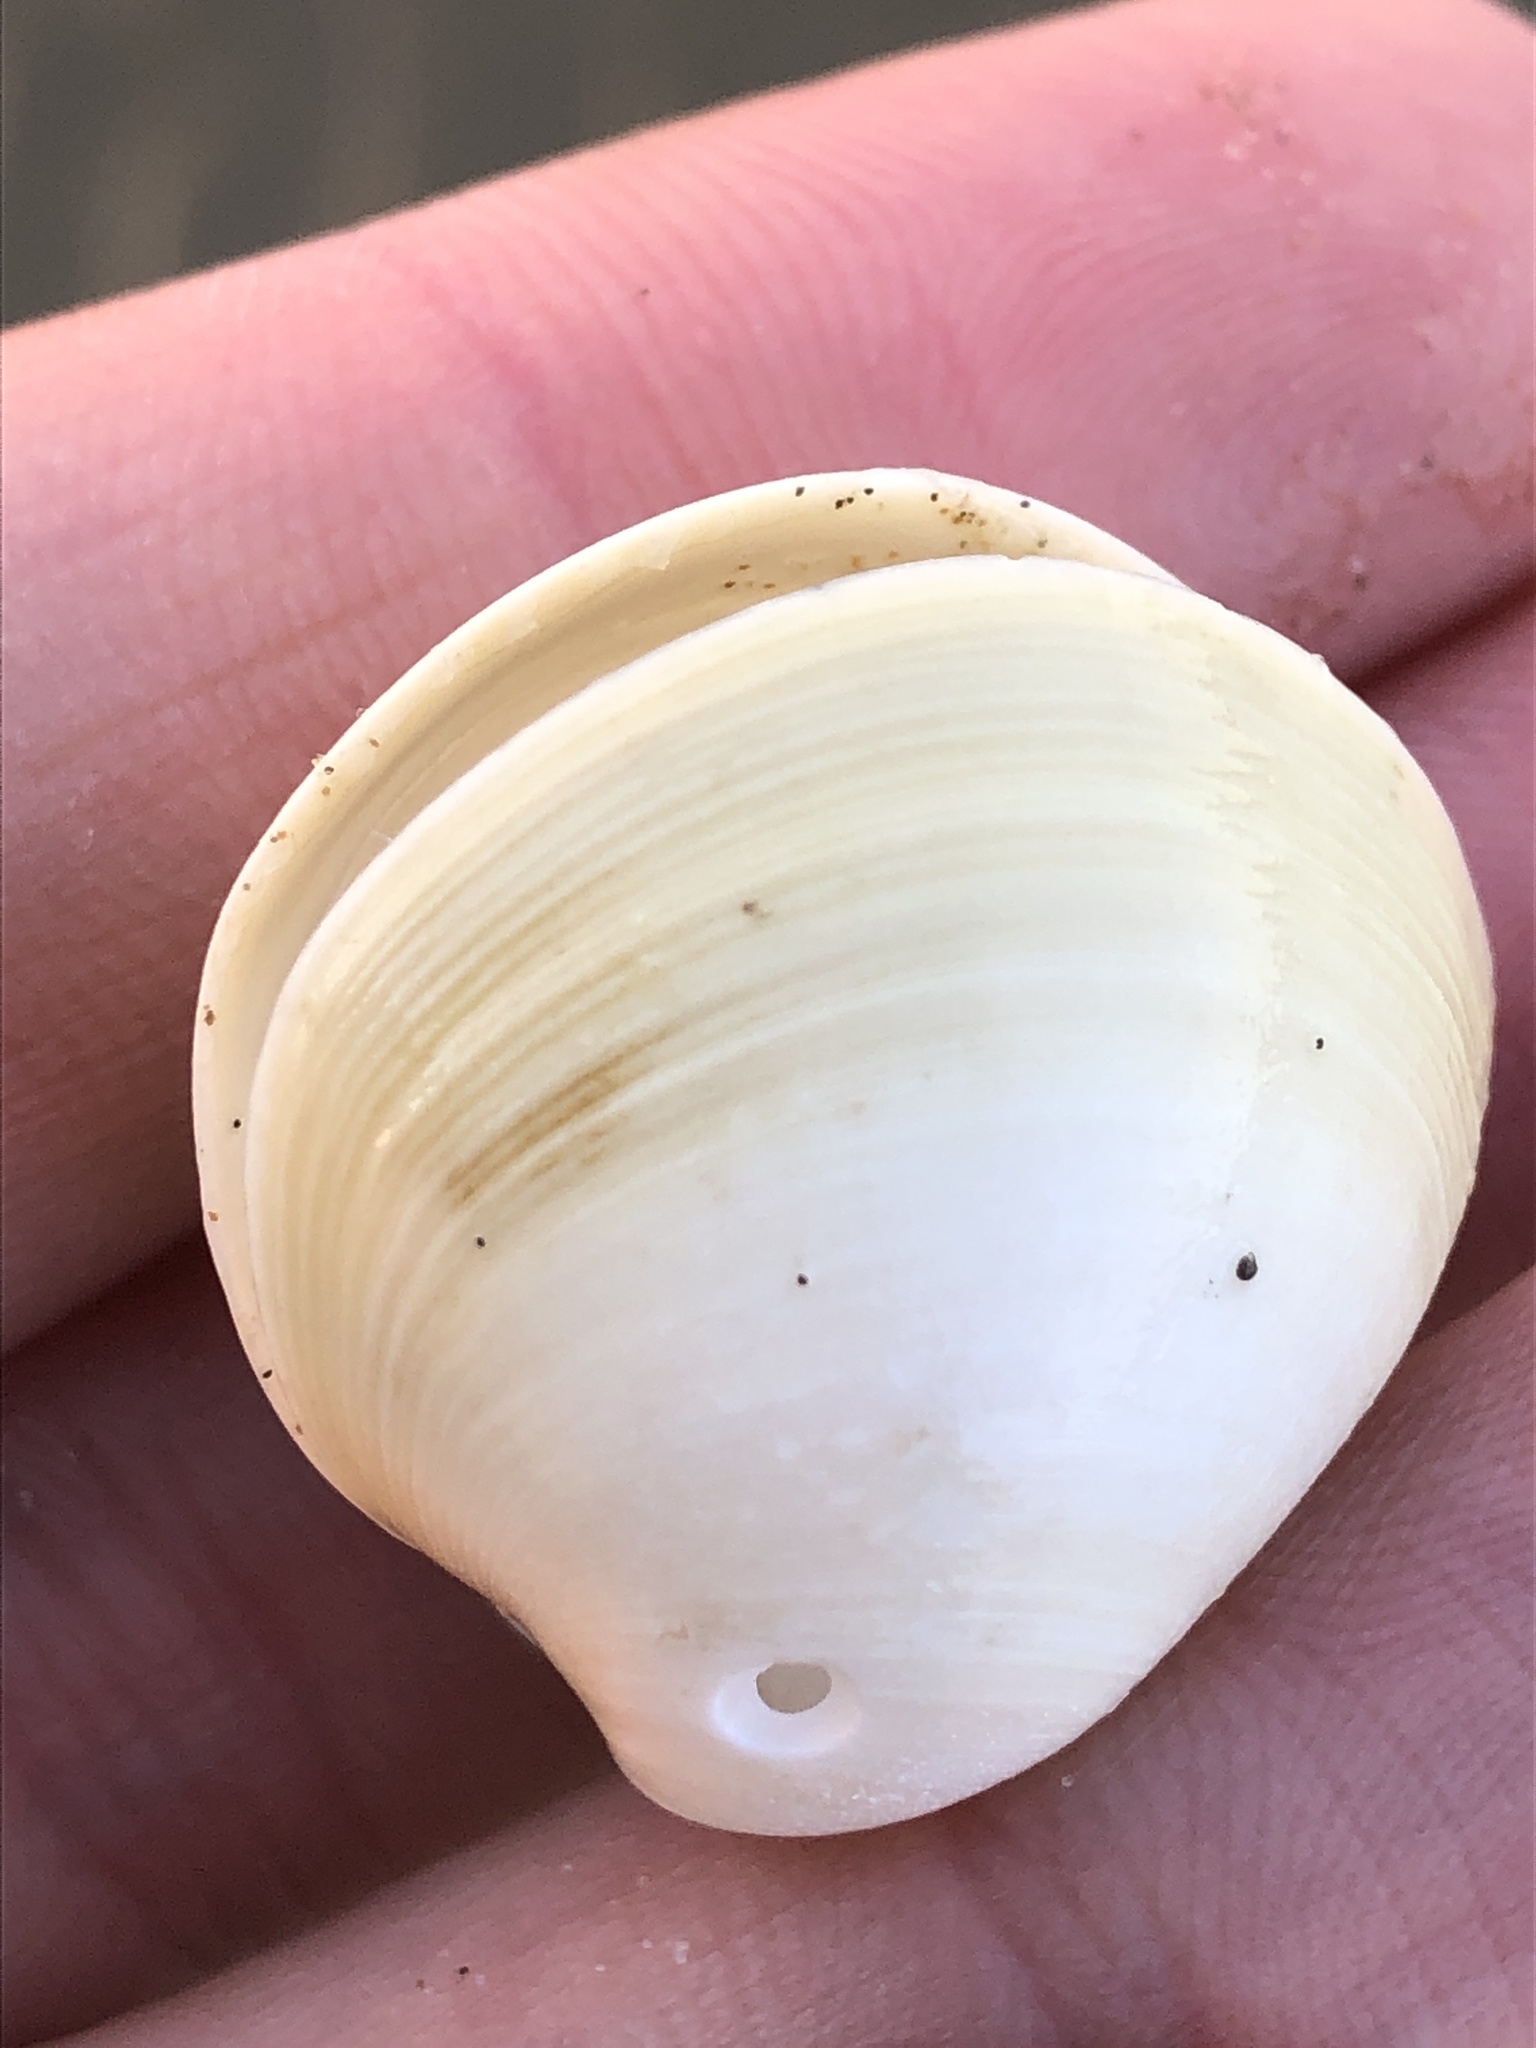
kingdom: Animalia
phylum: Mollusca
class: Bivalvia
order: Venerida
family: Mactridae
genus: Mactra
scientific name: Mactra quadrangularis
